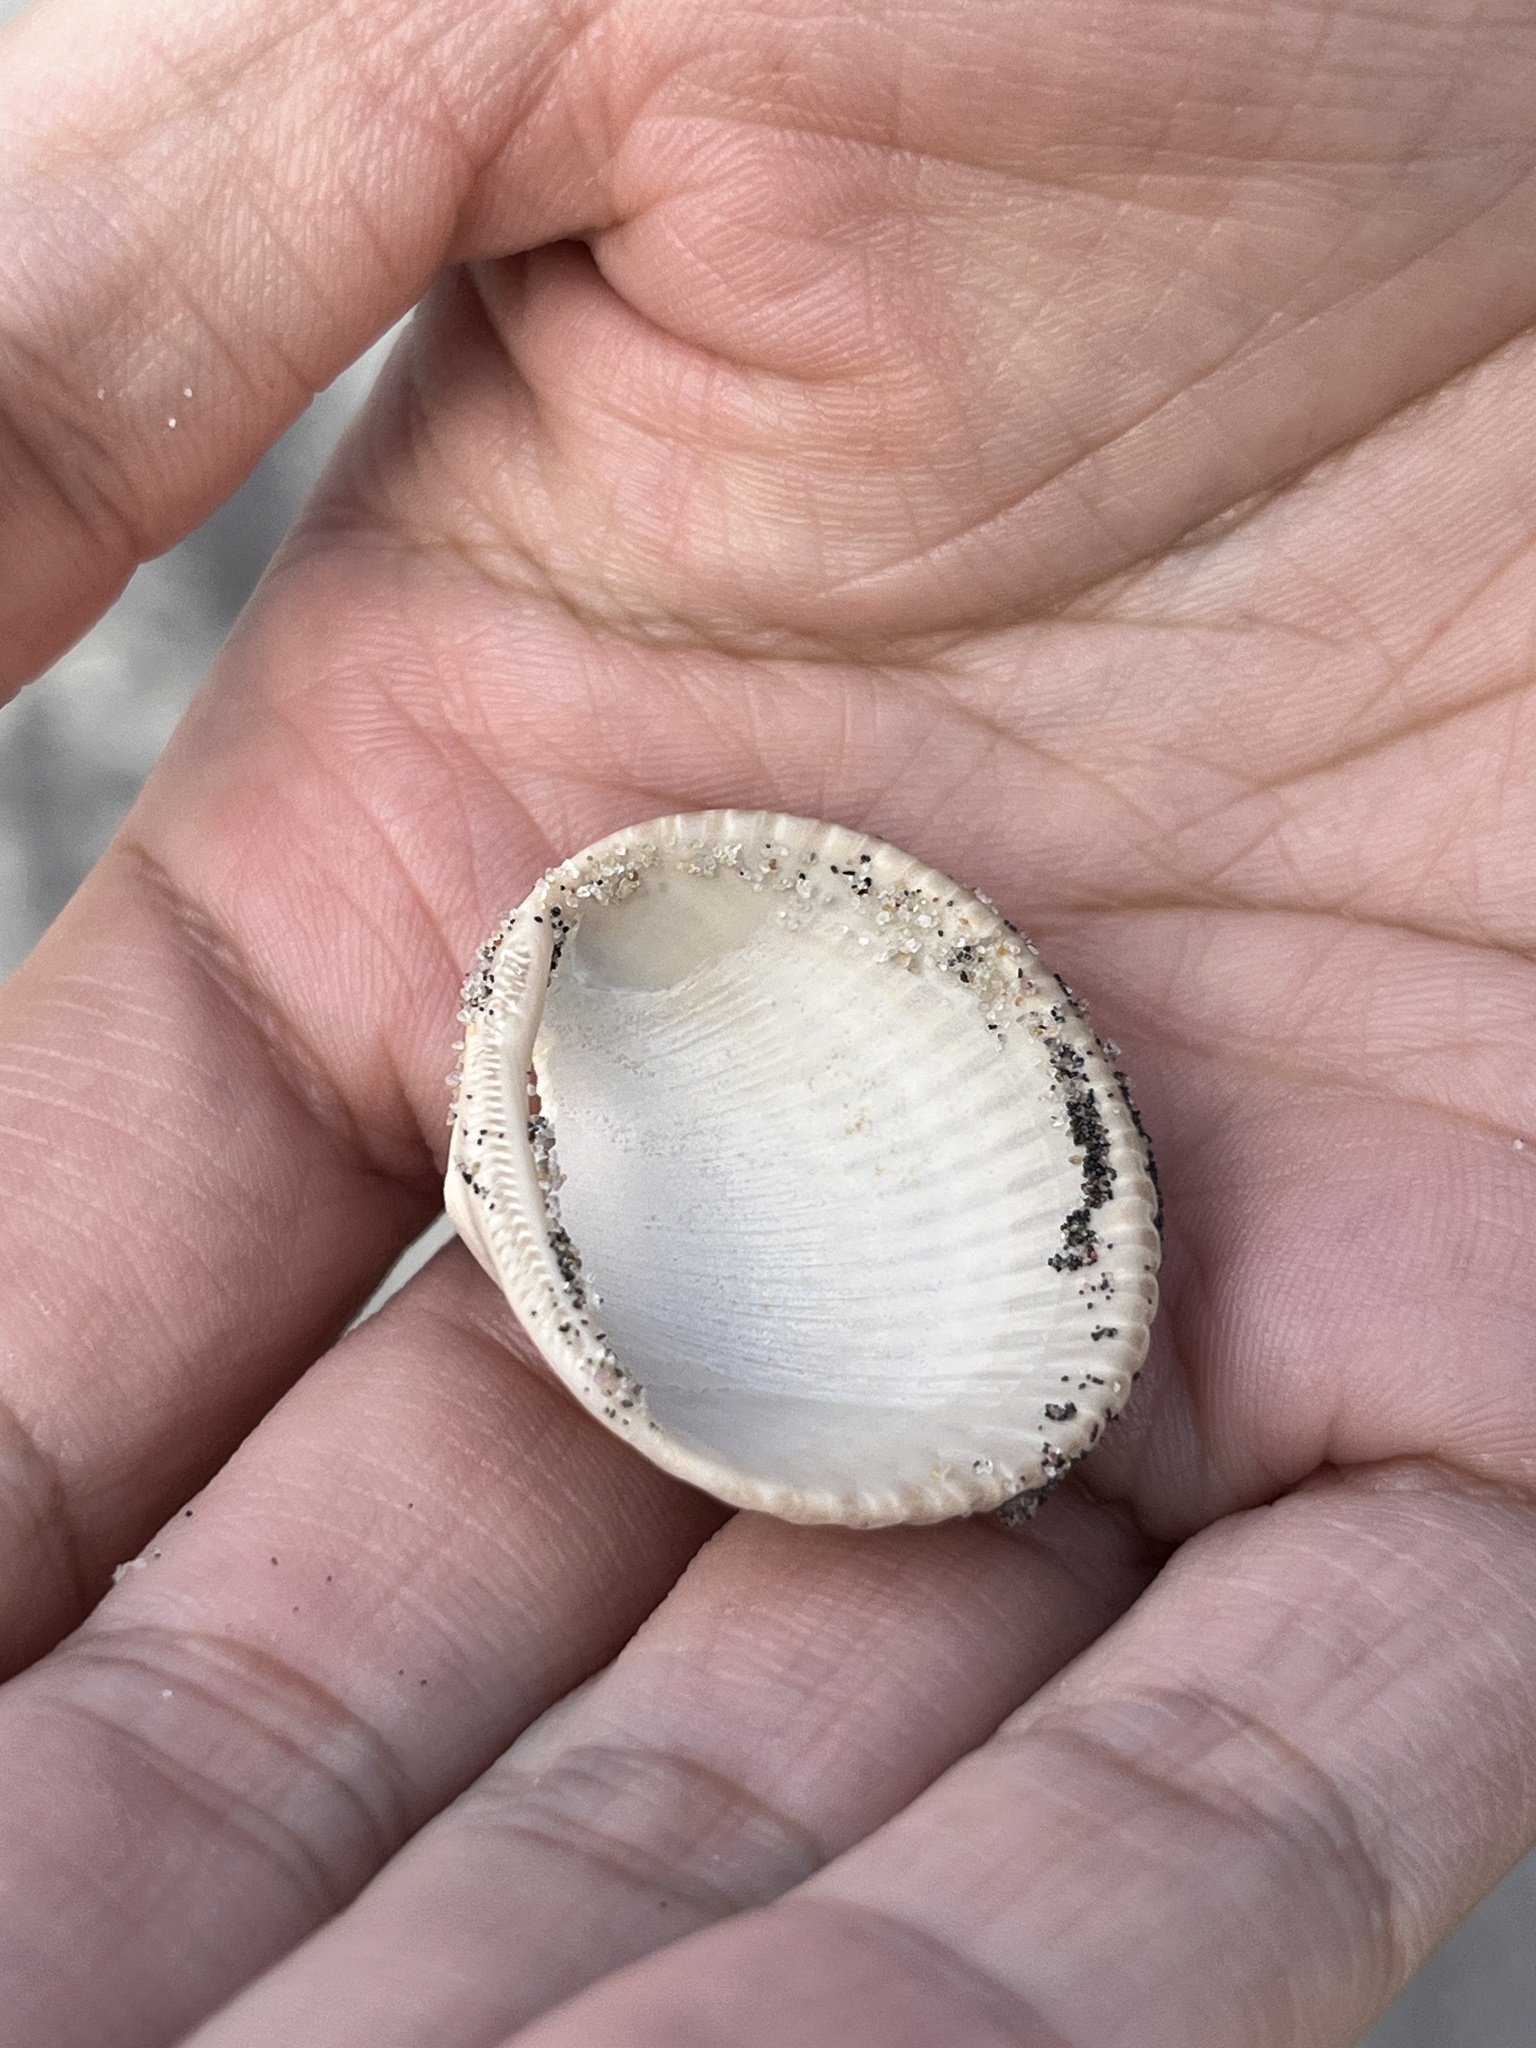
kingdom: Animalia
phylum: Mollusca
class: Bivalvia
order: Arcida
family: Arcidae
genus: Lunarca
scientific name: Lunarca ovalis
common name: Blood ark
